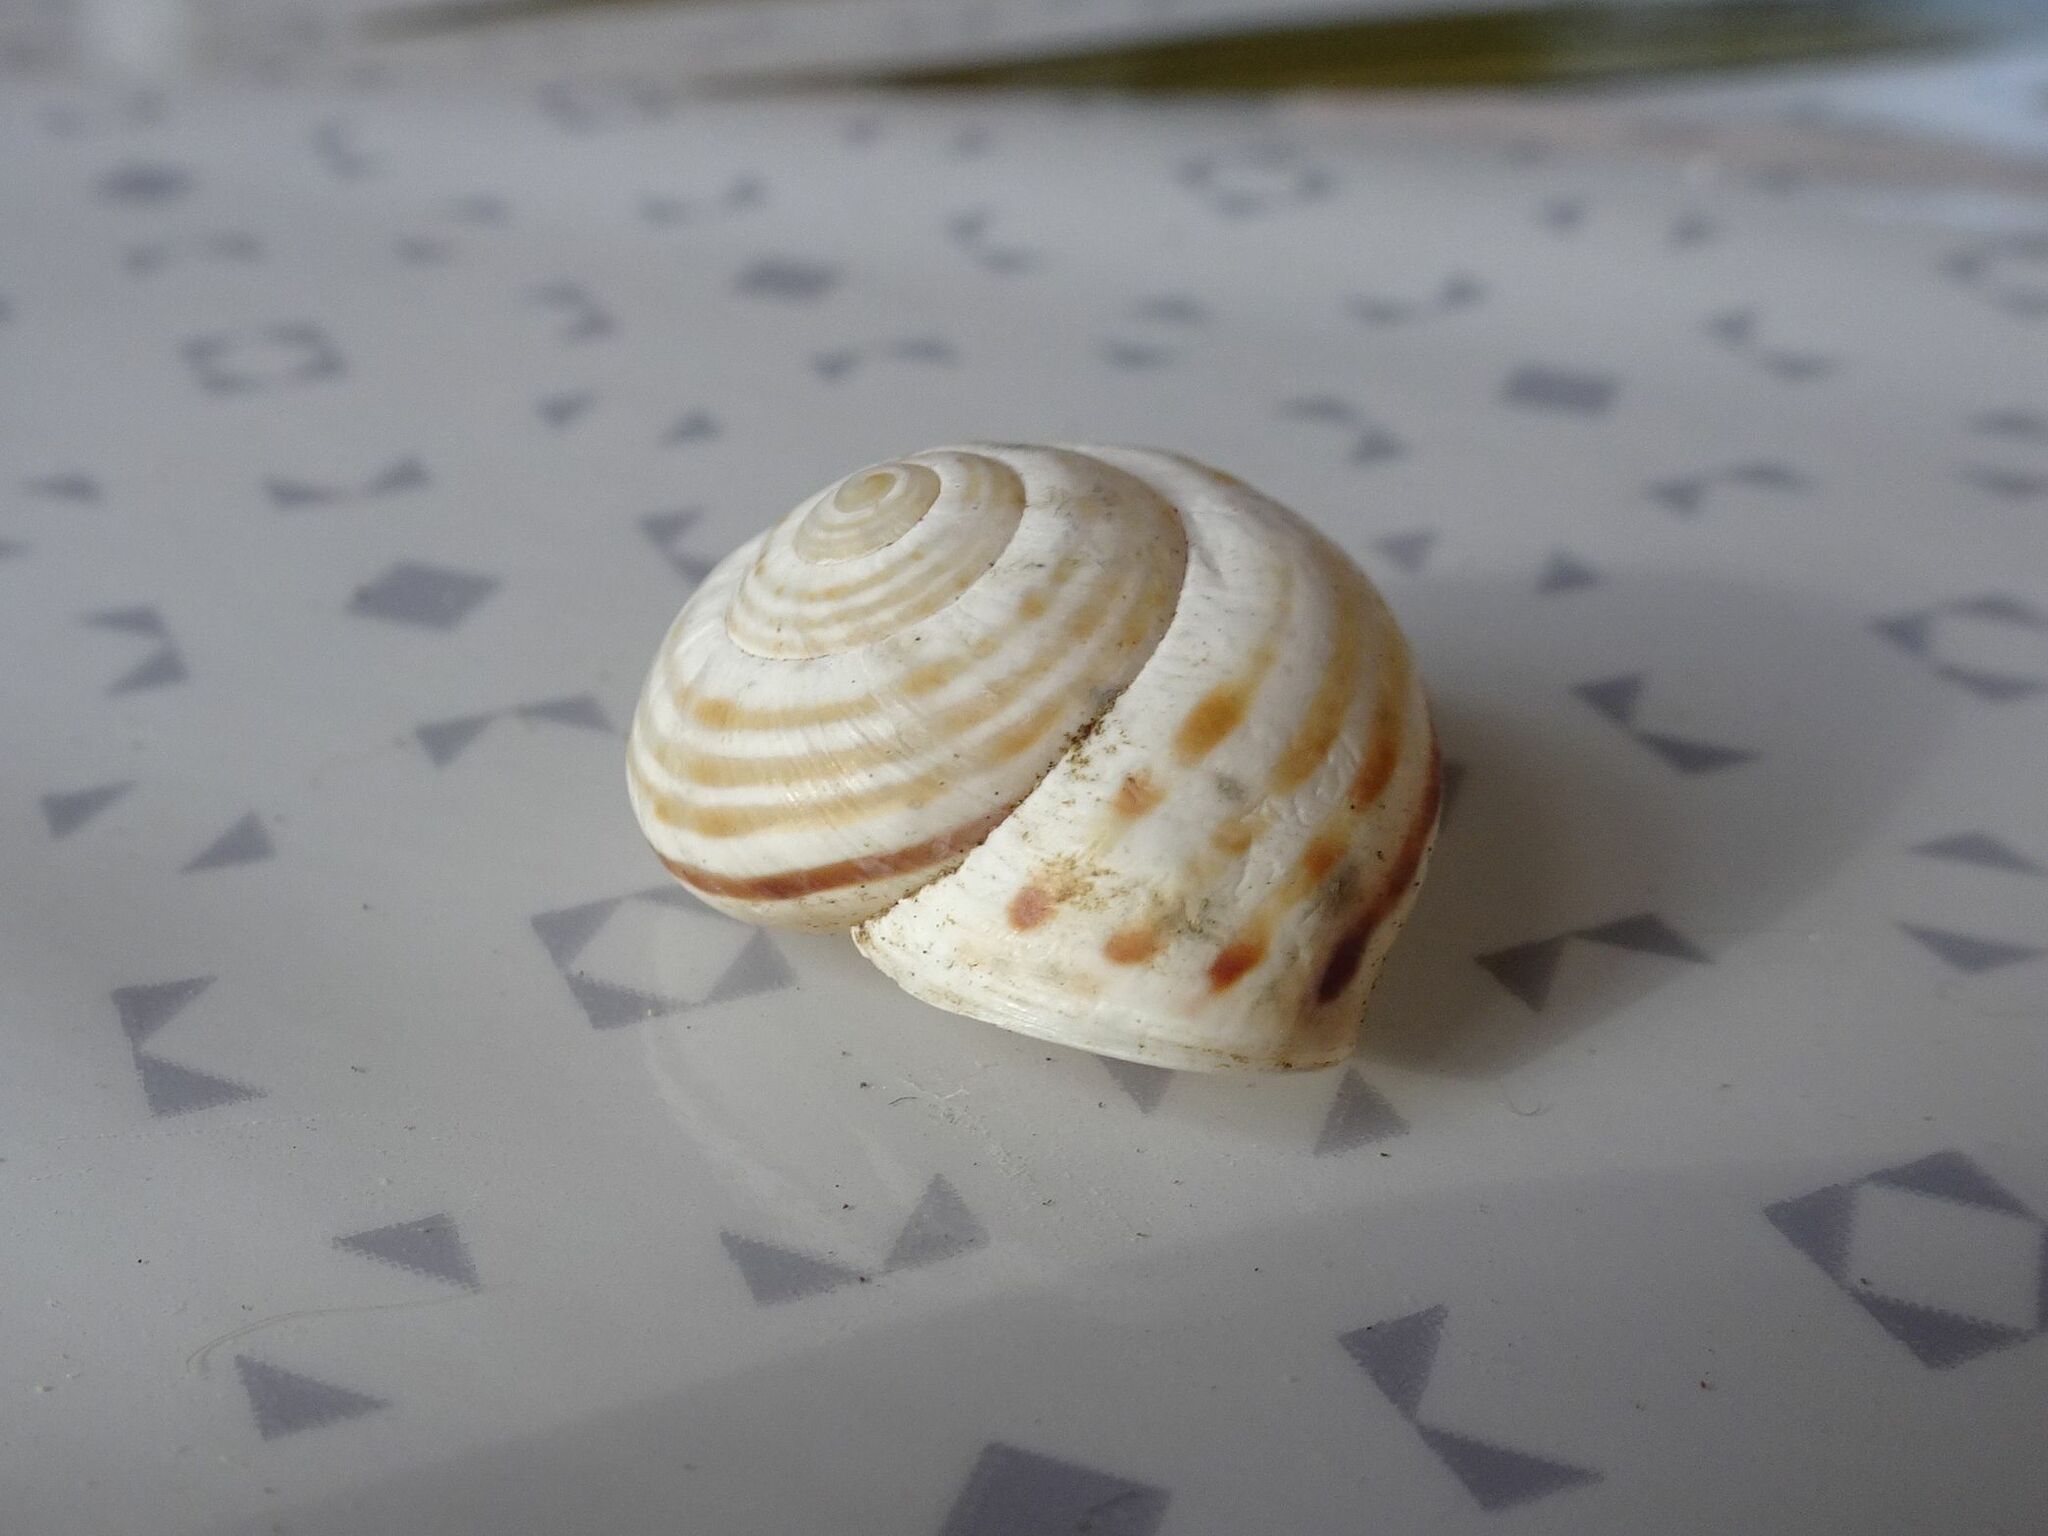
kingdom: Animalia
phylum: Mollusca
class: Gastropoda
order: Stylommatophora
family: Helicidae
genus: Pseudotachea
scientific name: Pseudotachea splendida
